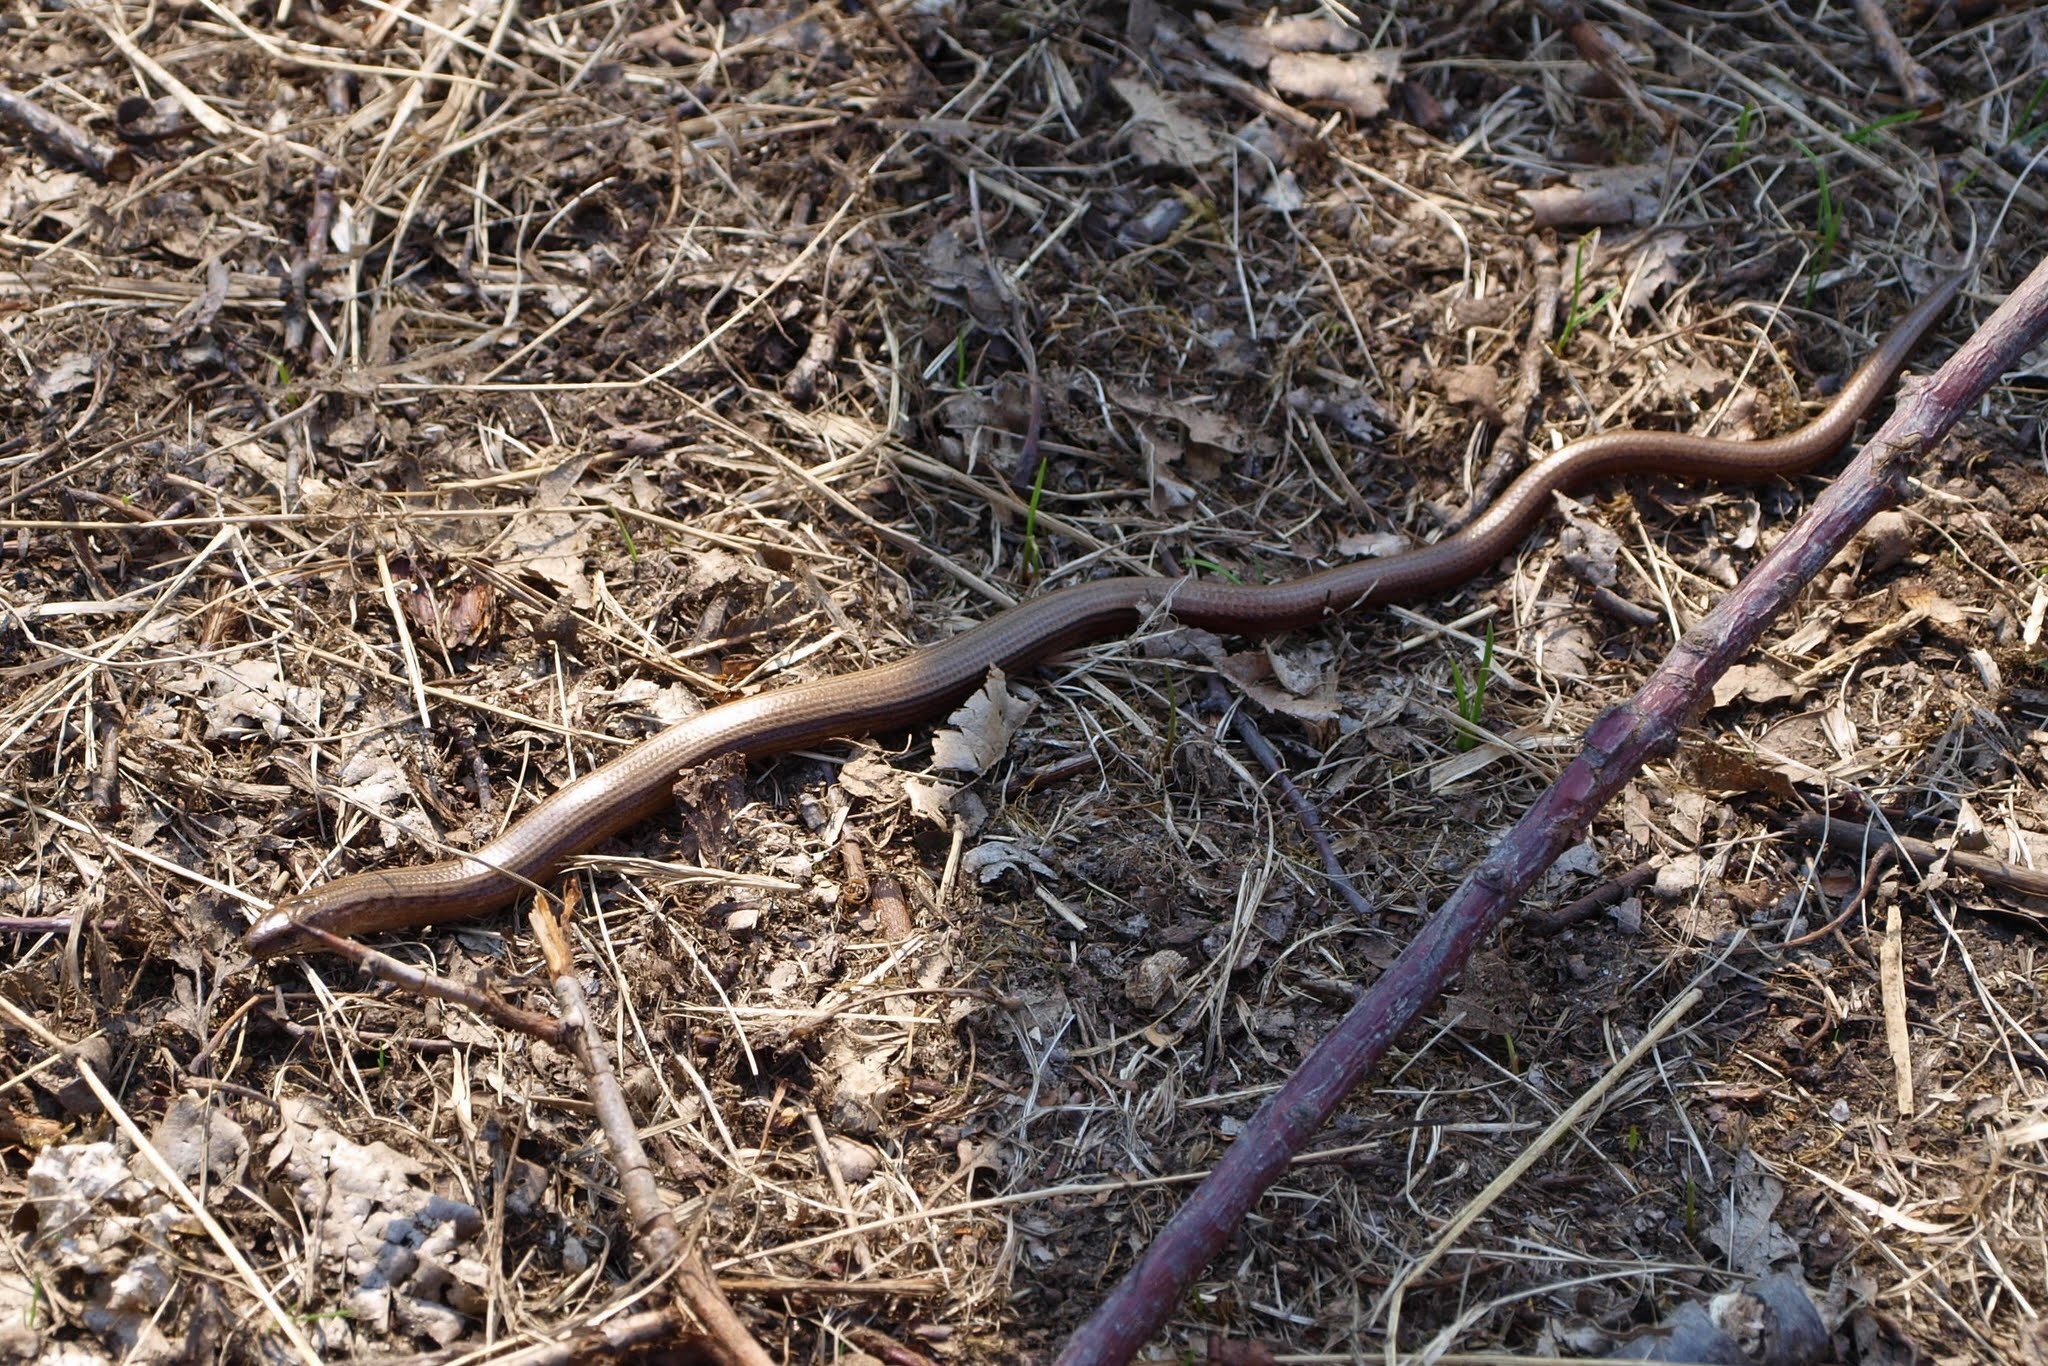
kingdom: Animalia
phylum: Chordata
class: Squamata
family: Anguidae
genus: Anguis
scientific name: Anguis fragilis
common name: Slow worm
